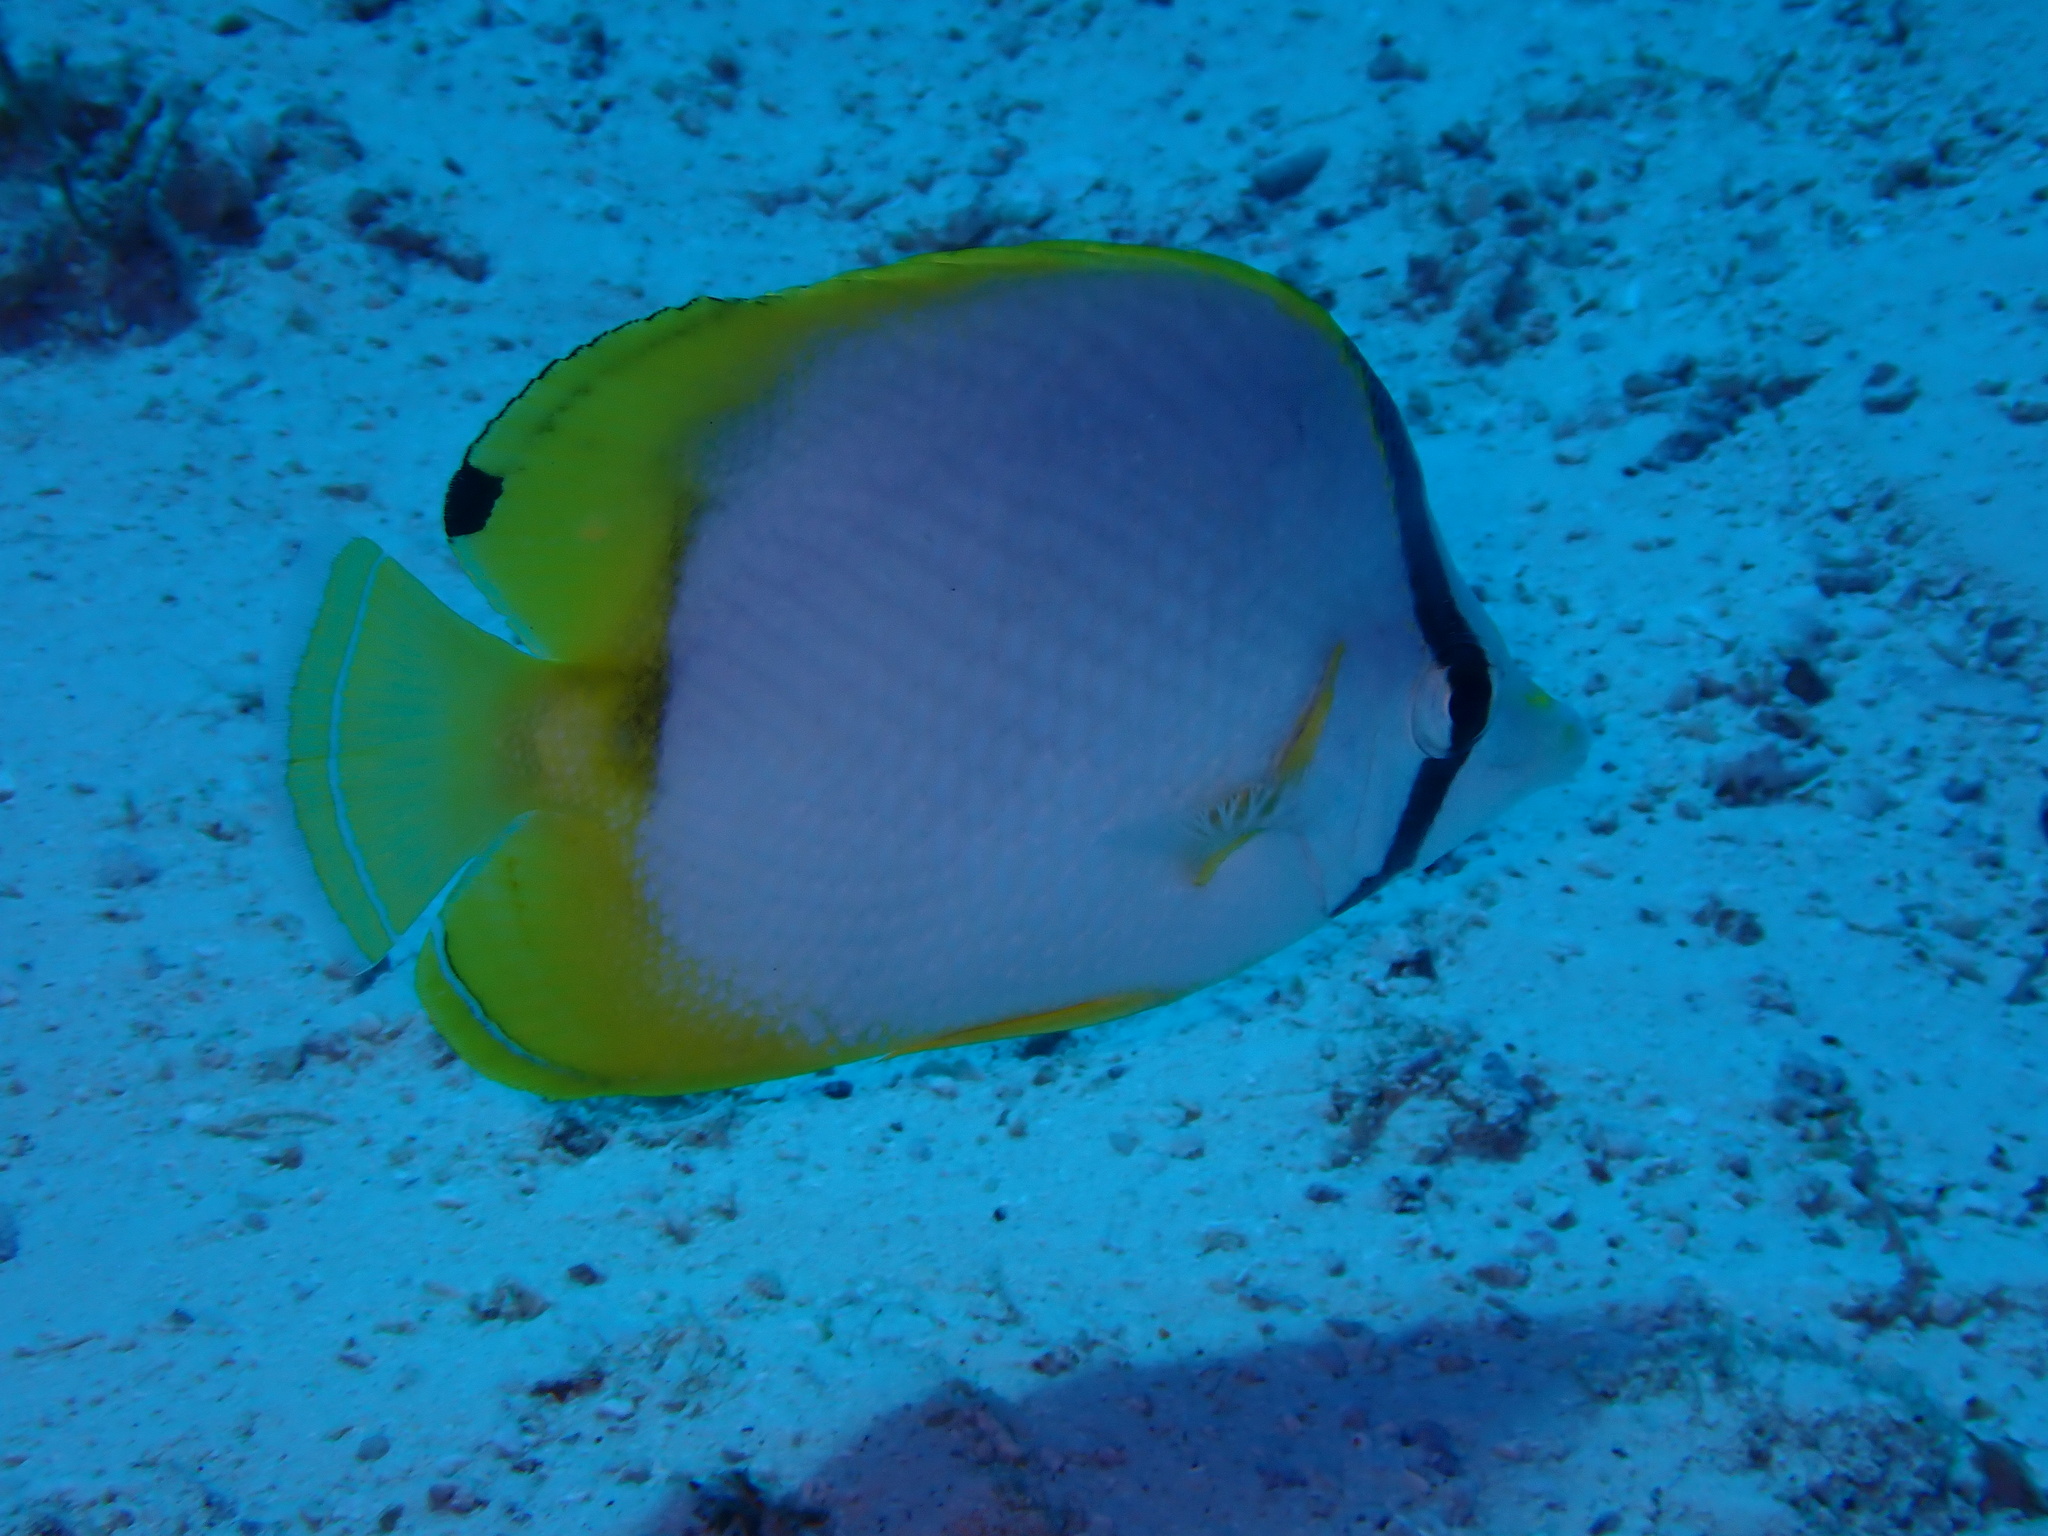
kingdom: Animalia
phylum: Chordata
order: Perciformes
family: Chaetodontidae
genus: Chaetodon
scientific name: Chaetodon ocellatus
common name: Spotfin butterflyfish
